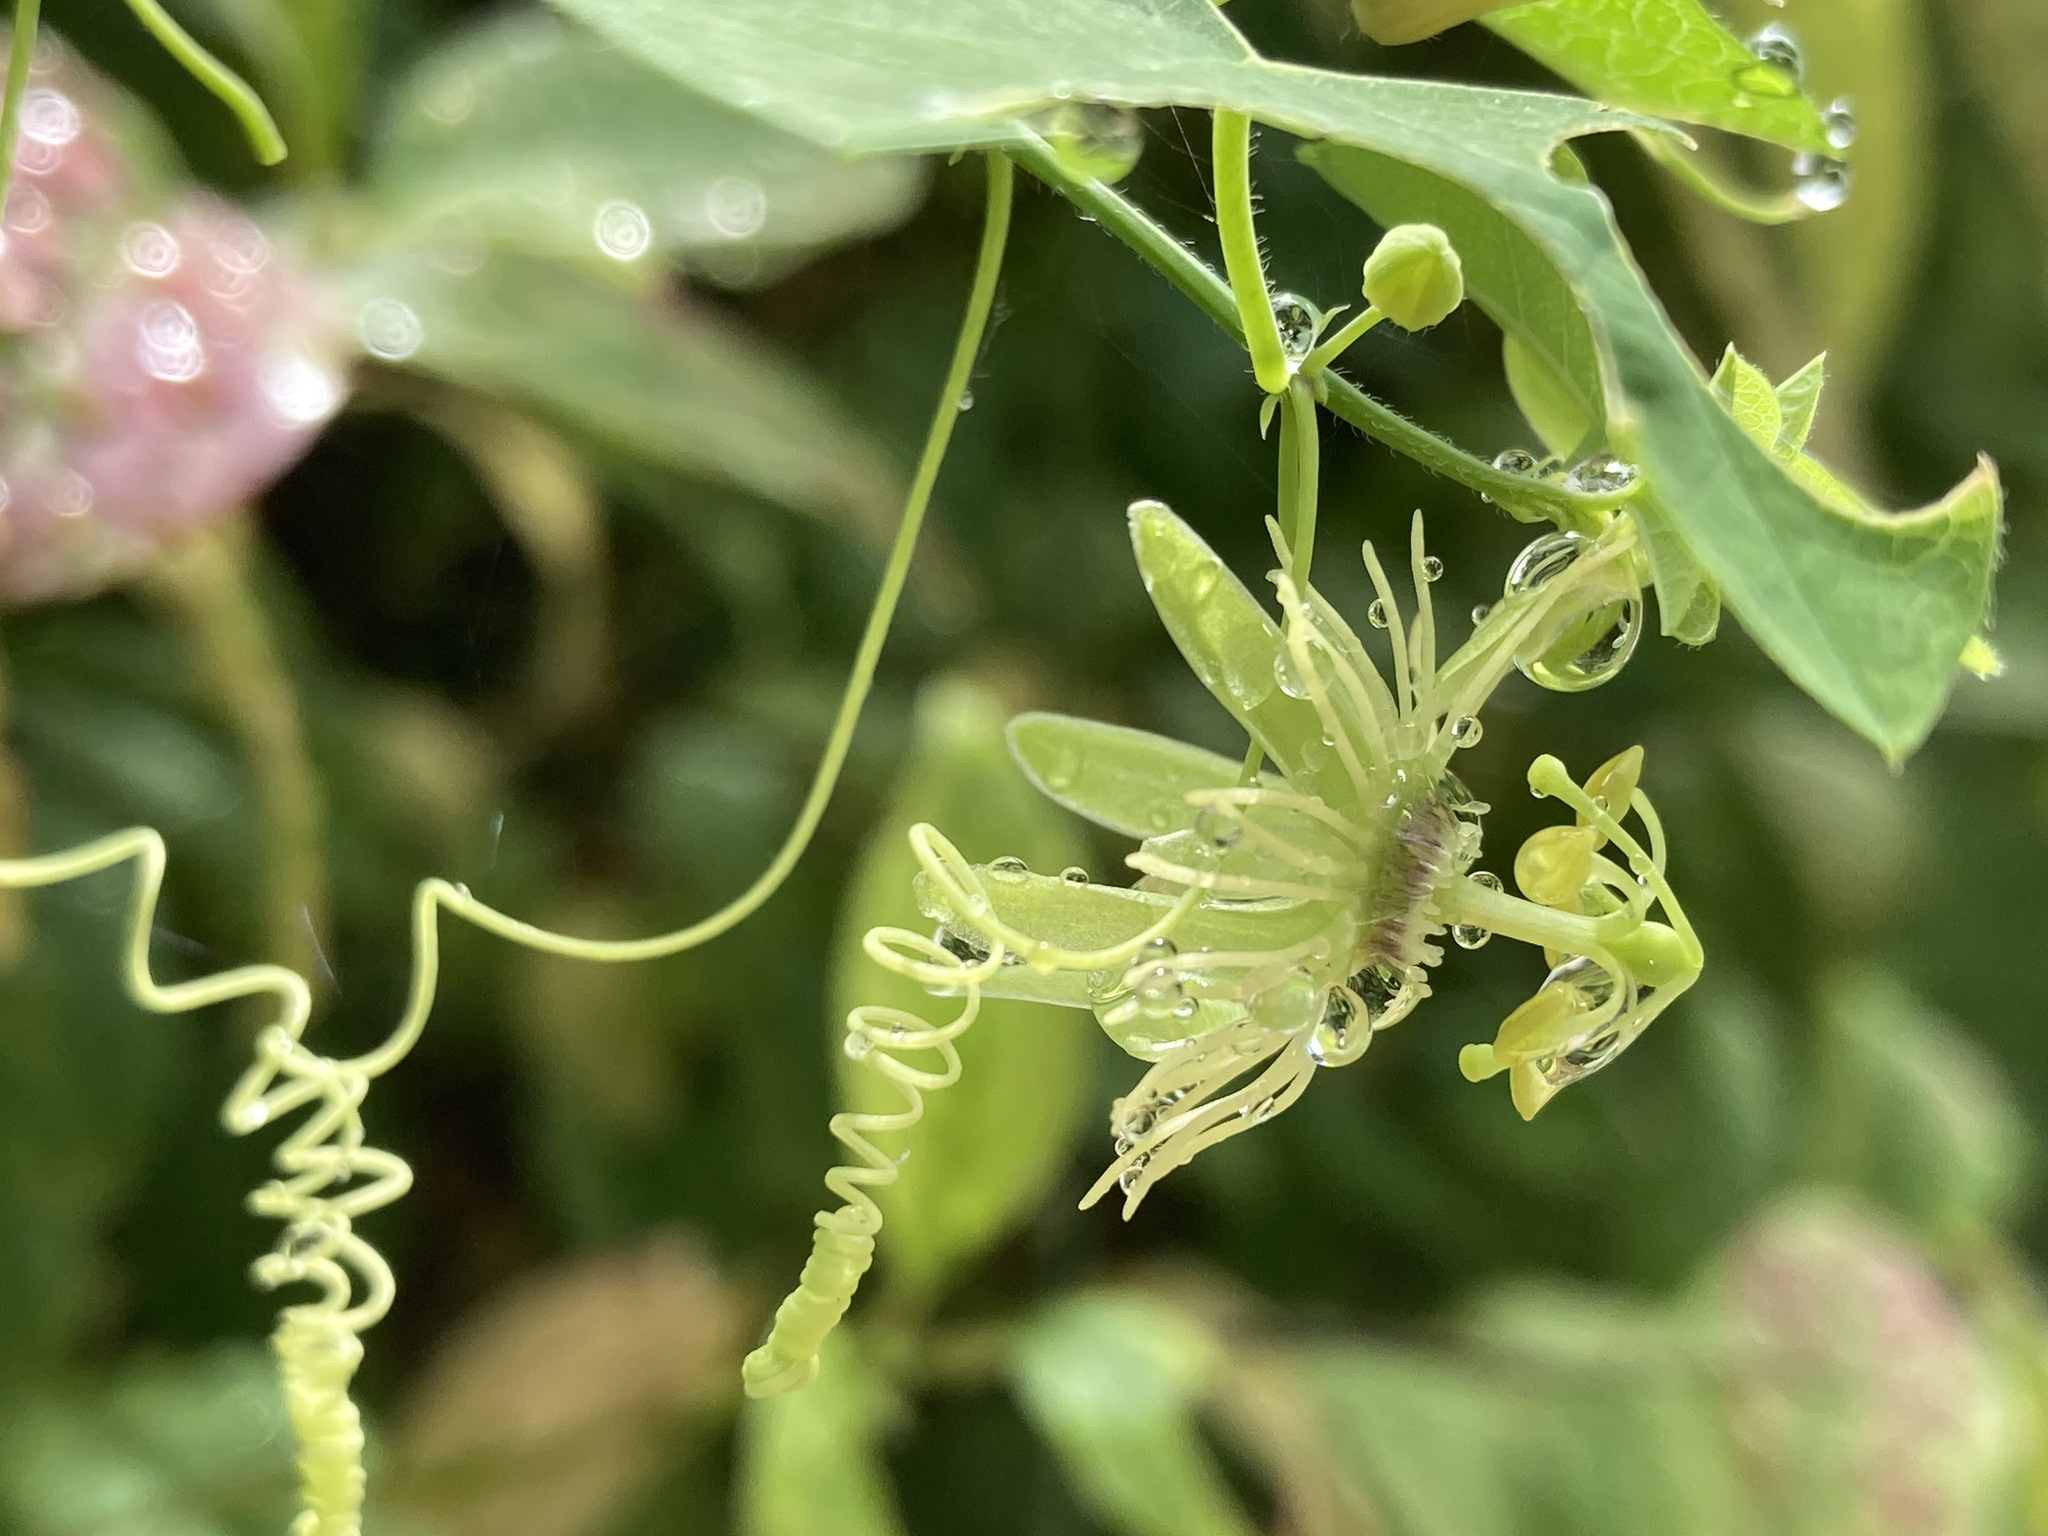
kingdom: Plantae
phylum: Tracheophyta
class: Magnoliopsida
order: Malpighiales
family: Passifloraceae
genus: Passiflora
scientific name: Passiflora lutea
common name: Yellow passionflower
